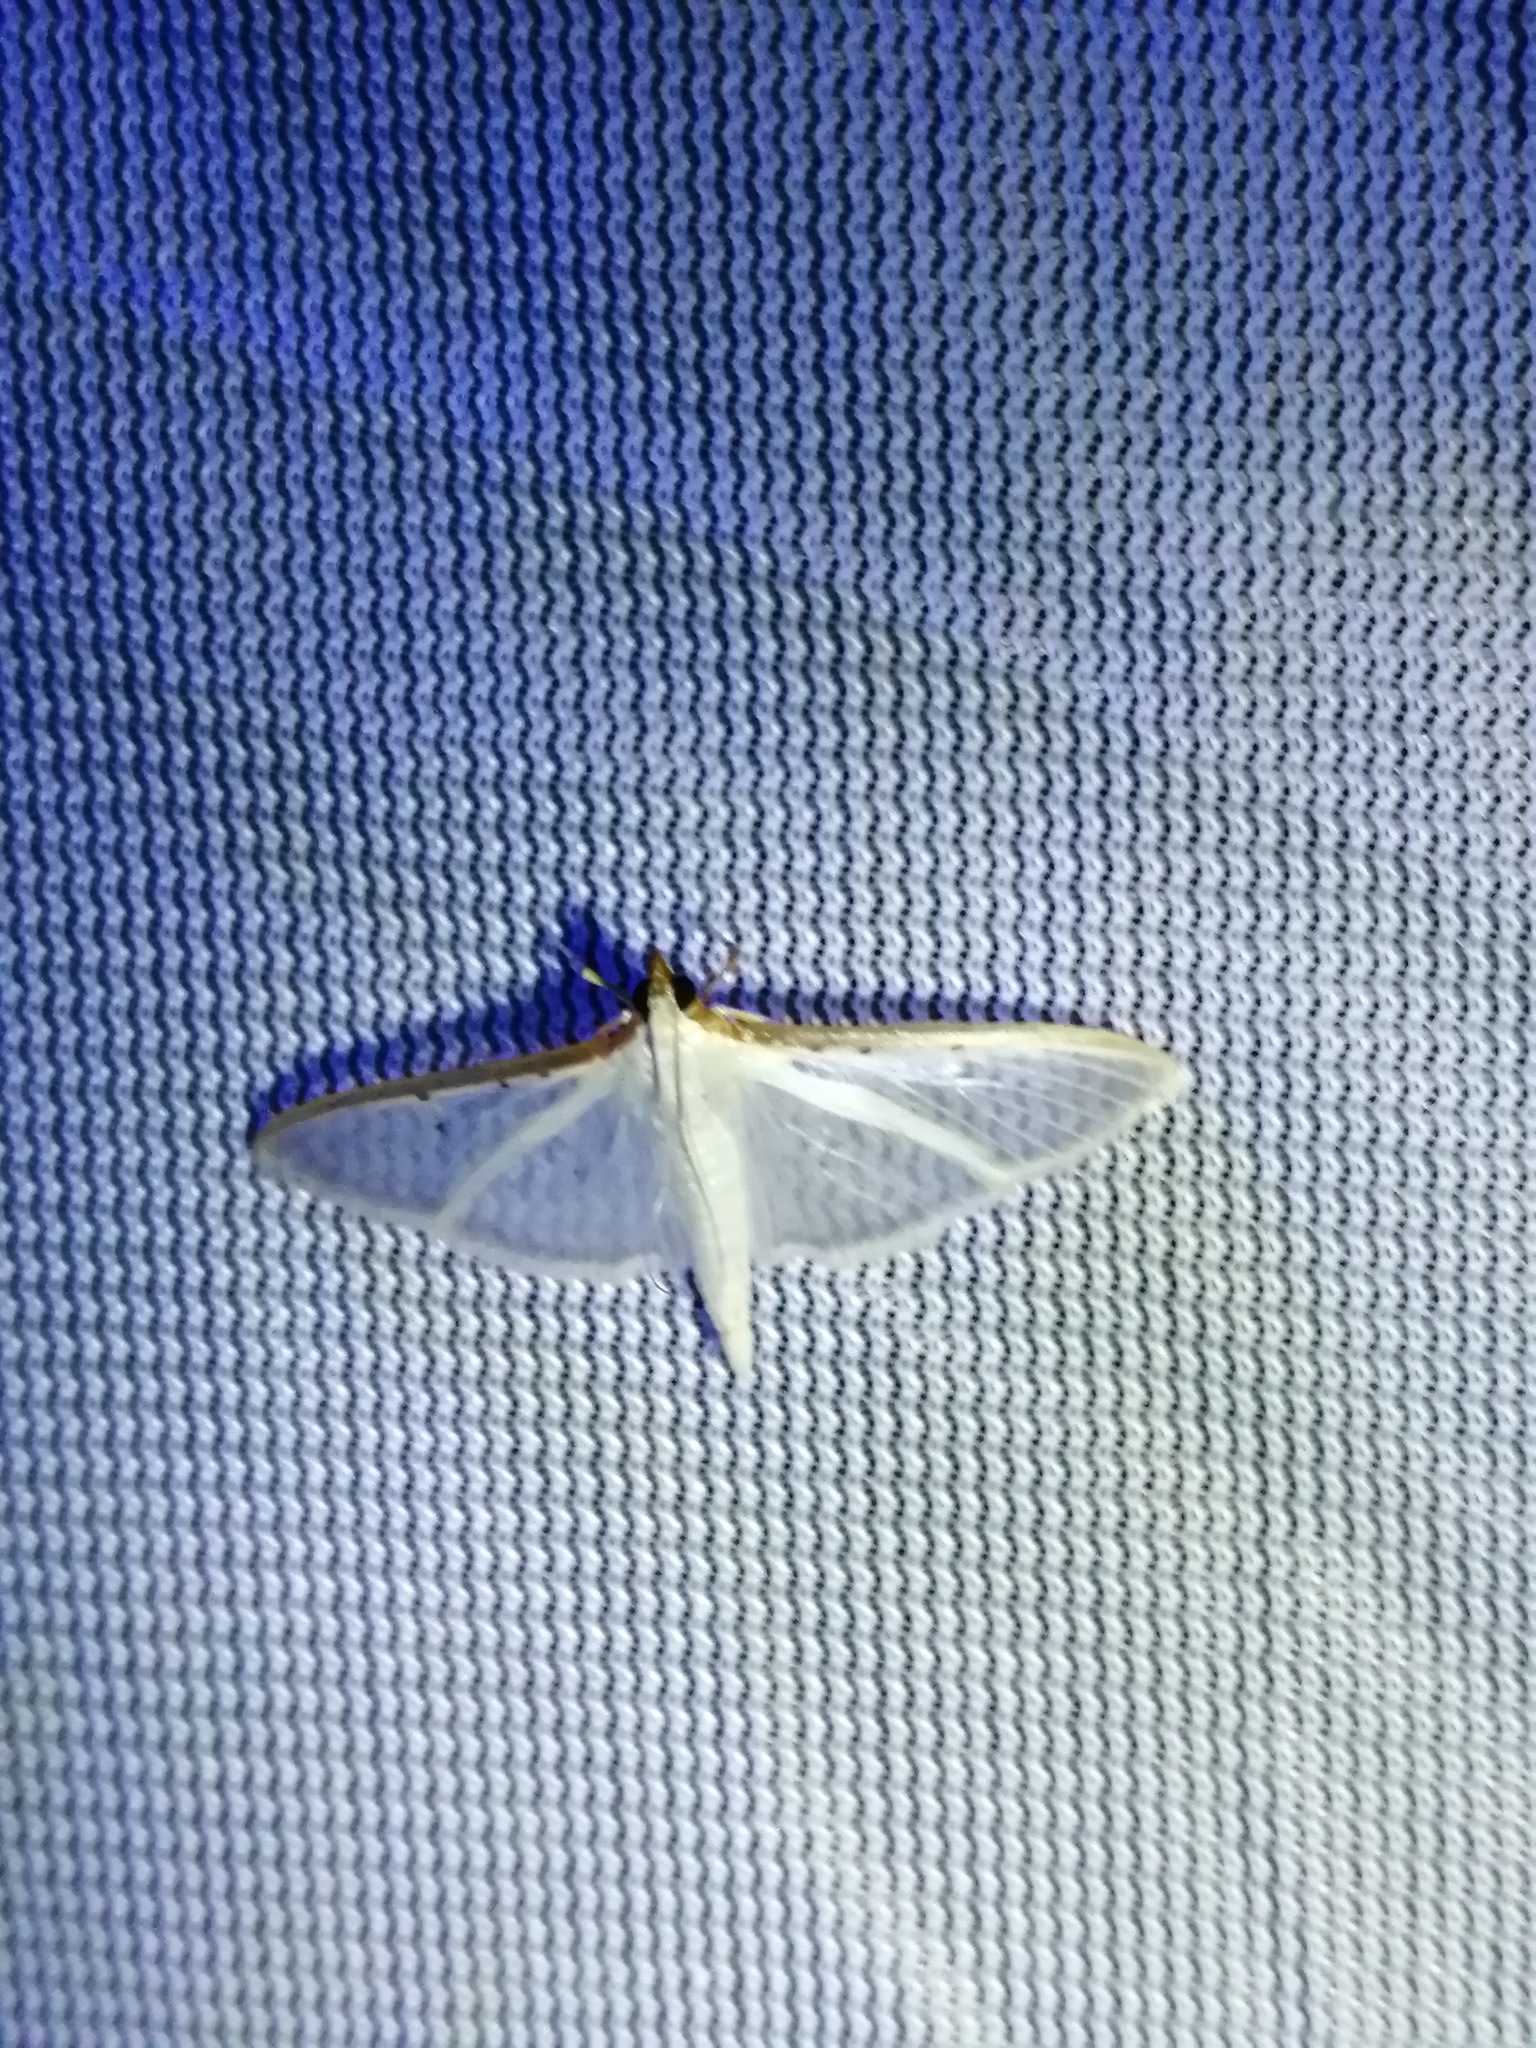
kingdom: Animalia
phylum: Arthropoda
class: Insecta
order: Lepidoptera
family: Crambidae
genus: Palpita
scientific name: Palpita quadristigmalis
